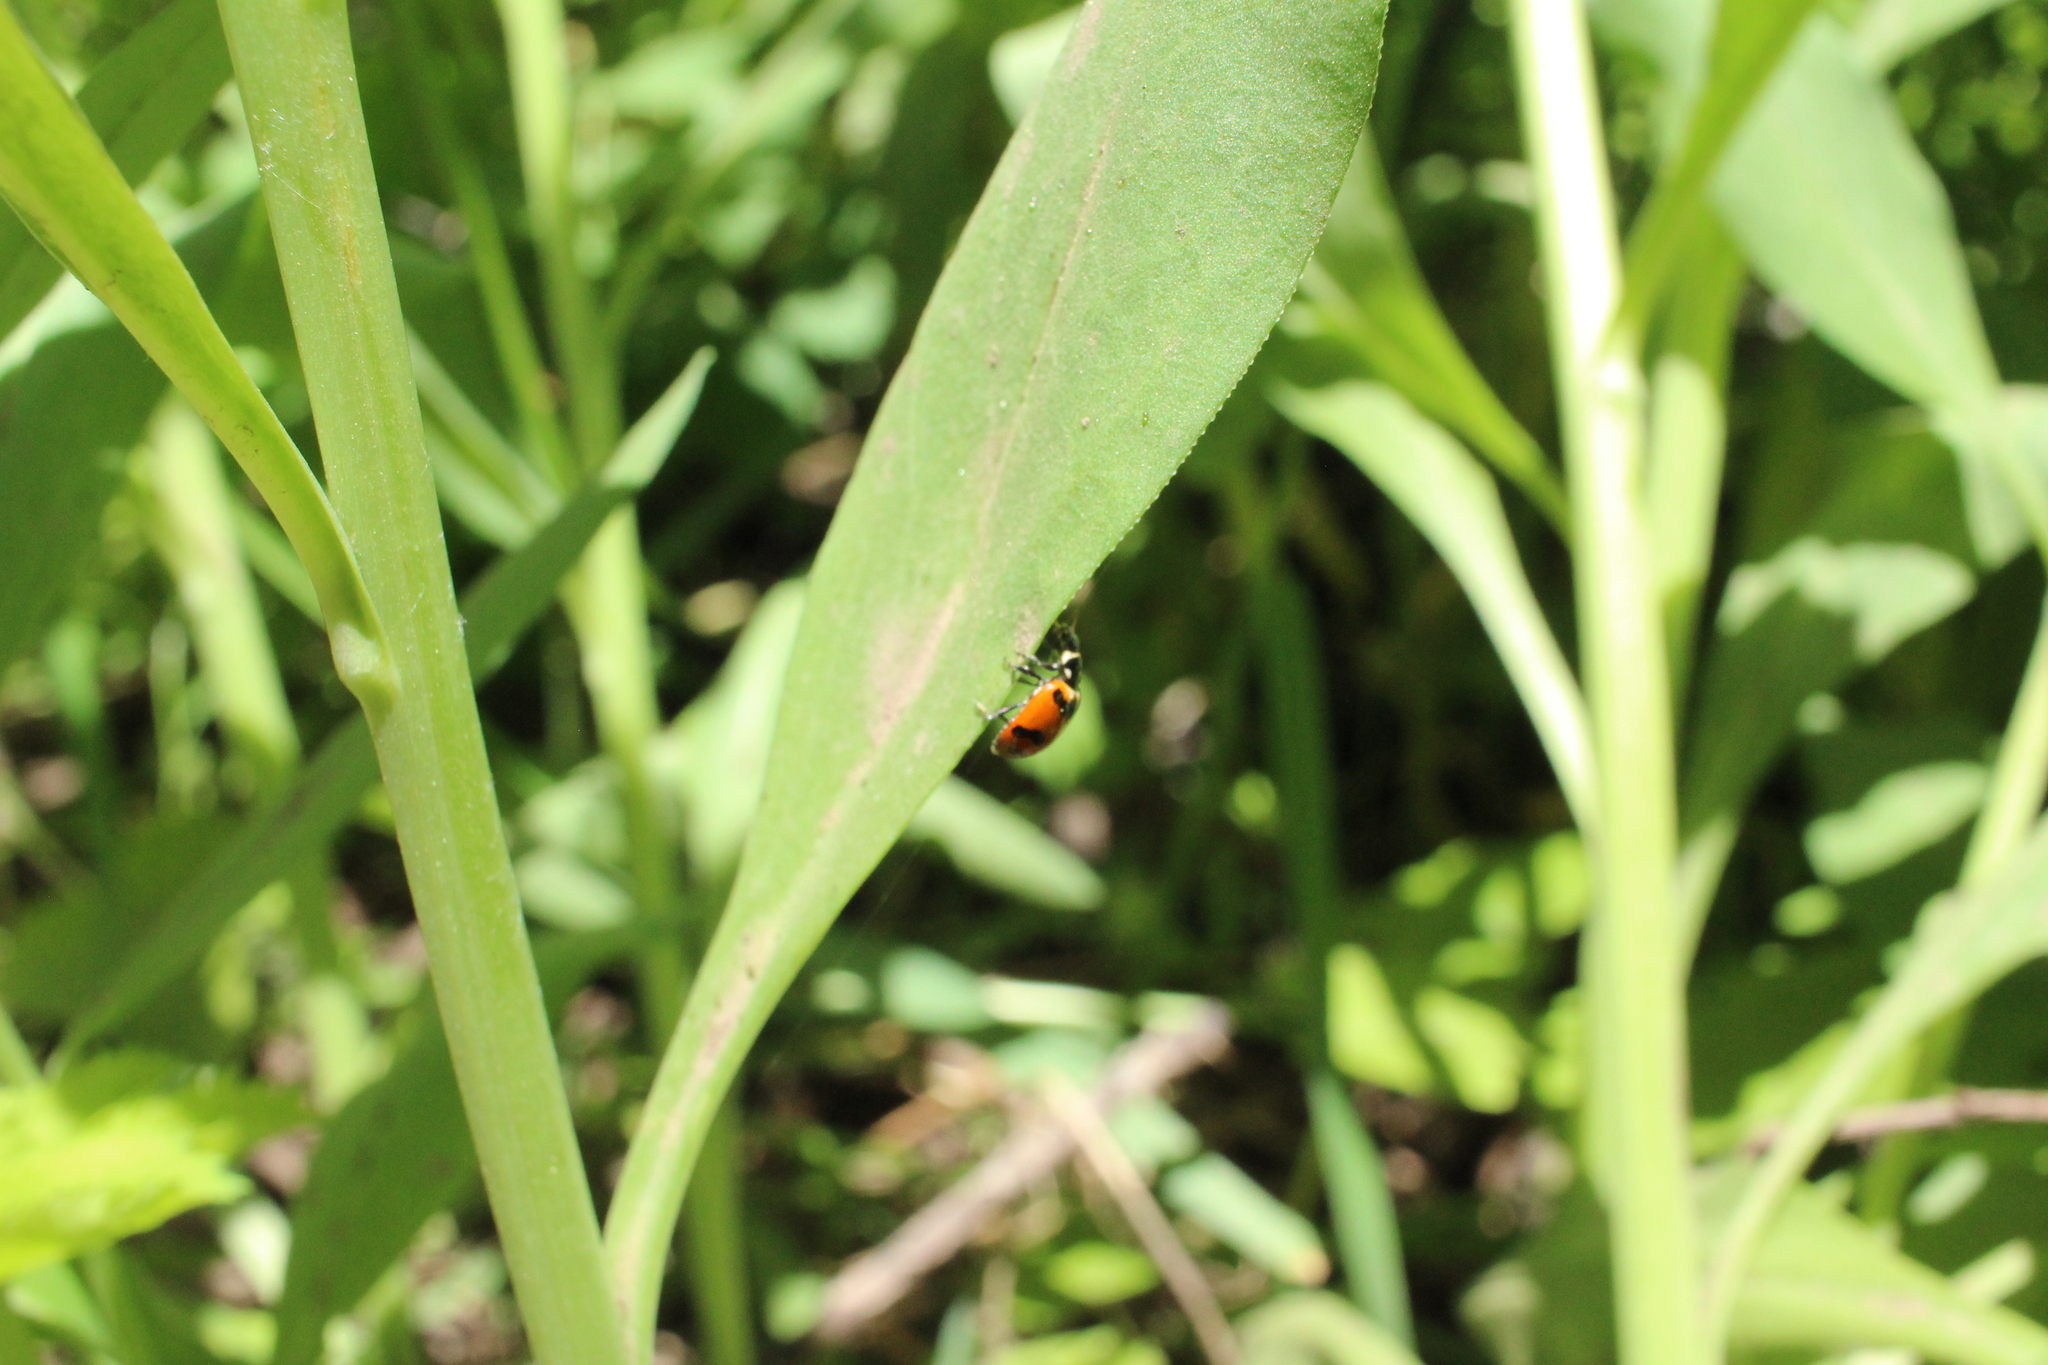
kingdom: Animalia
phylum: Arthropoda
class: Insecta
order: Coleoptera
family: Coccinellidae
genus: Hippodamia
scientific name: Hippodamia caseyi
